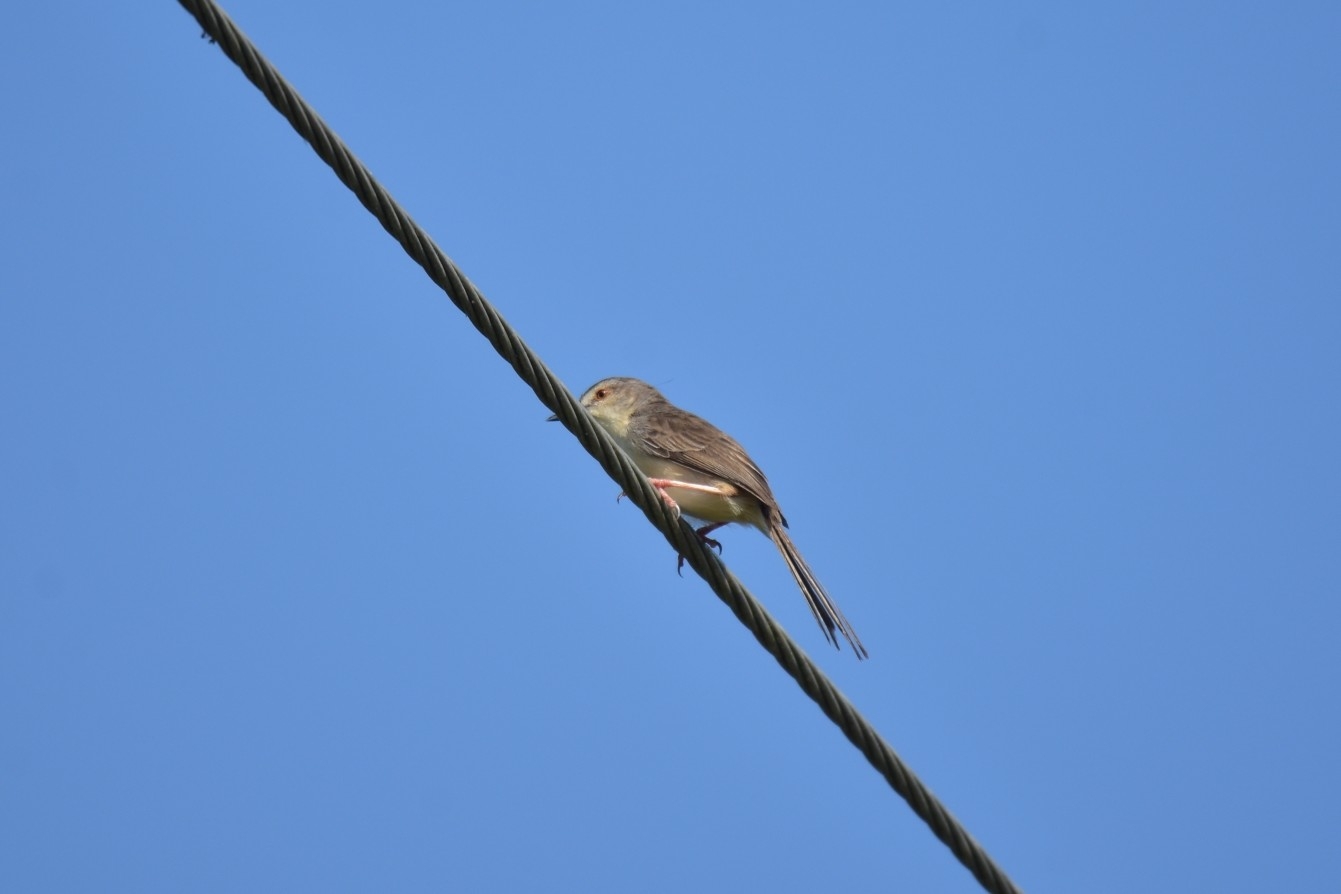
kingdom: Animalia
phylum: Chordata
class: Aves
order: Passeriformes
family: Cisticolidae
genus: Prinia
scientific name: Prinia inornata
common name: Plain prinia
